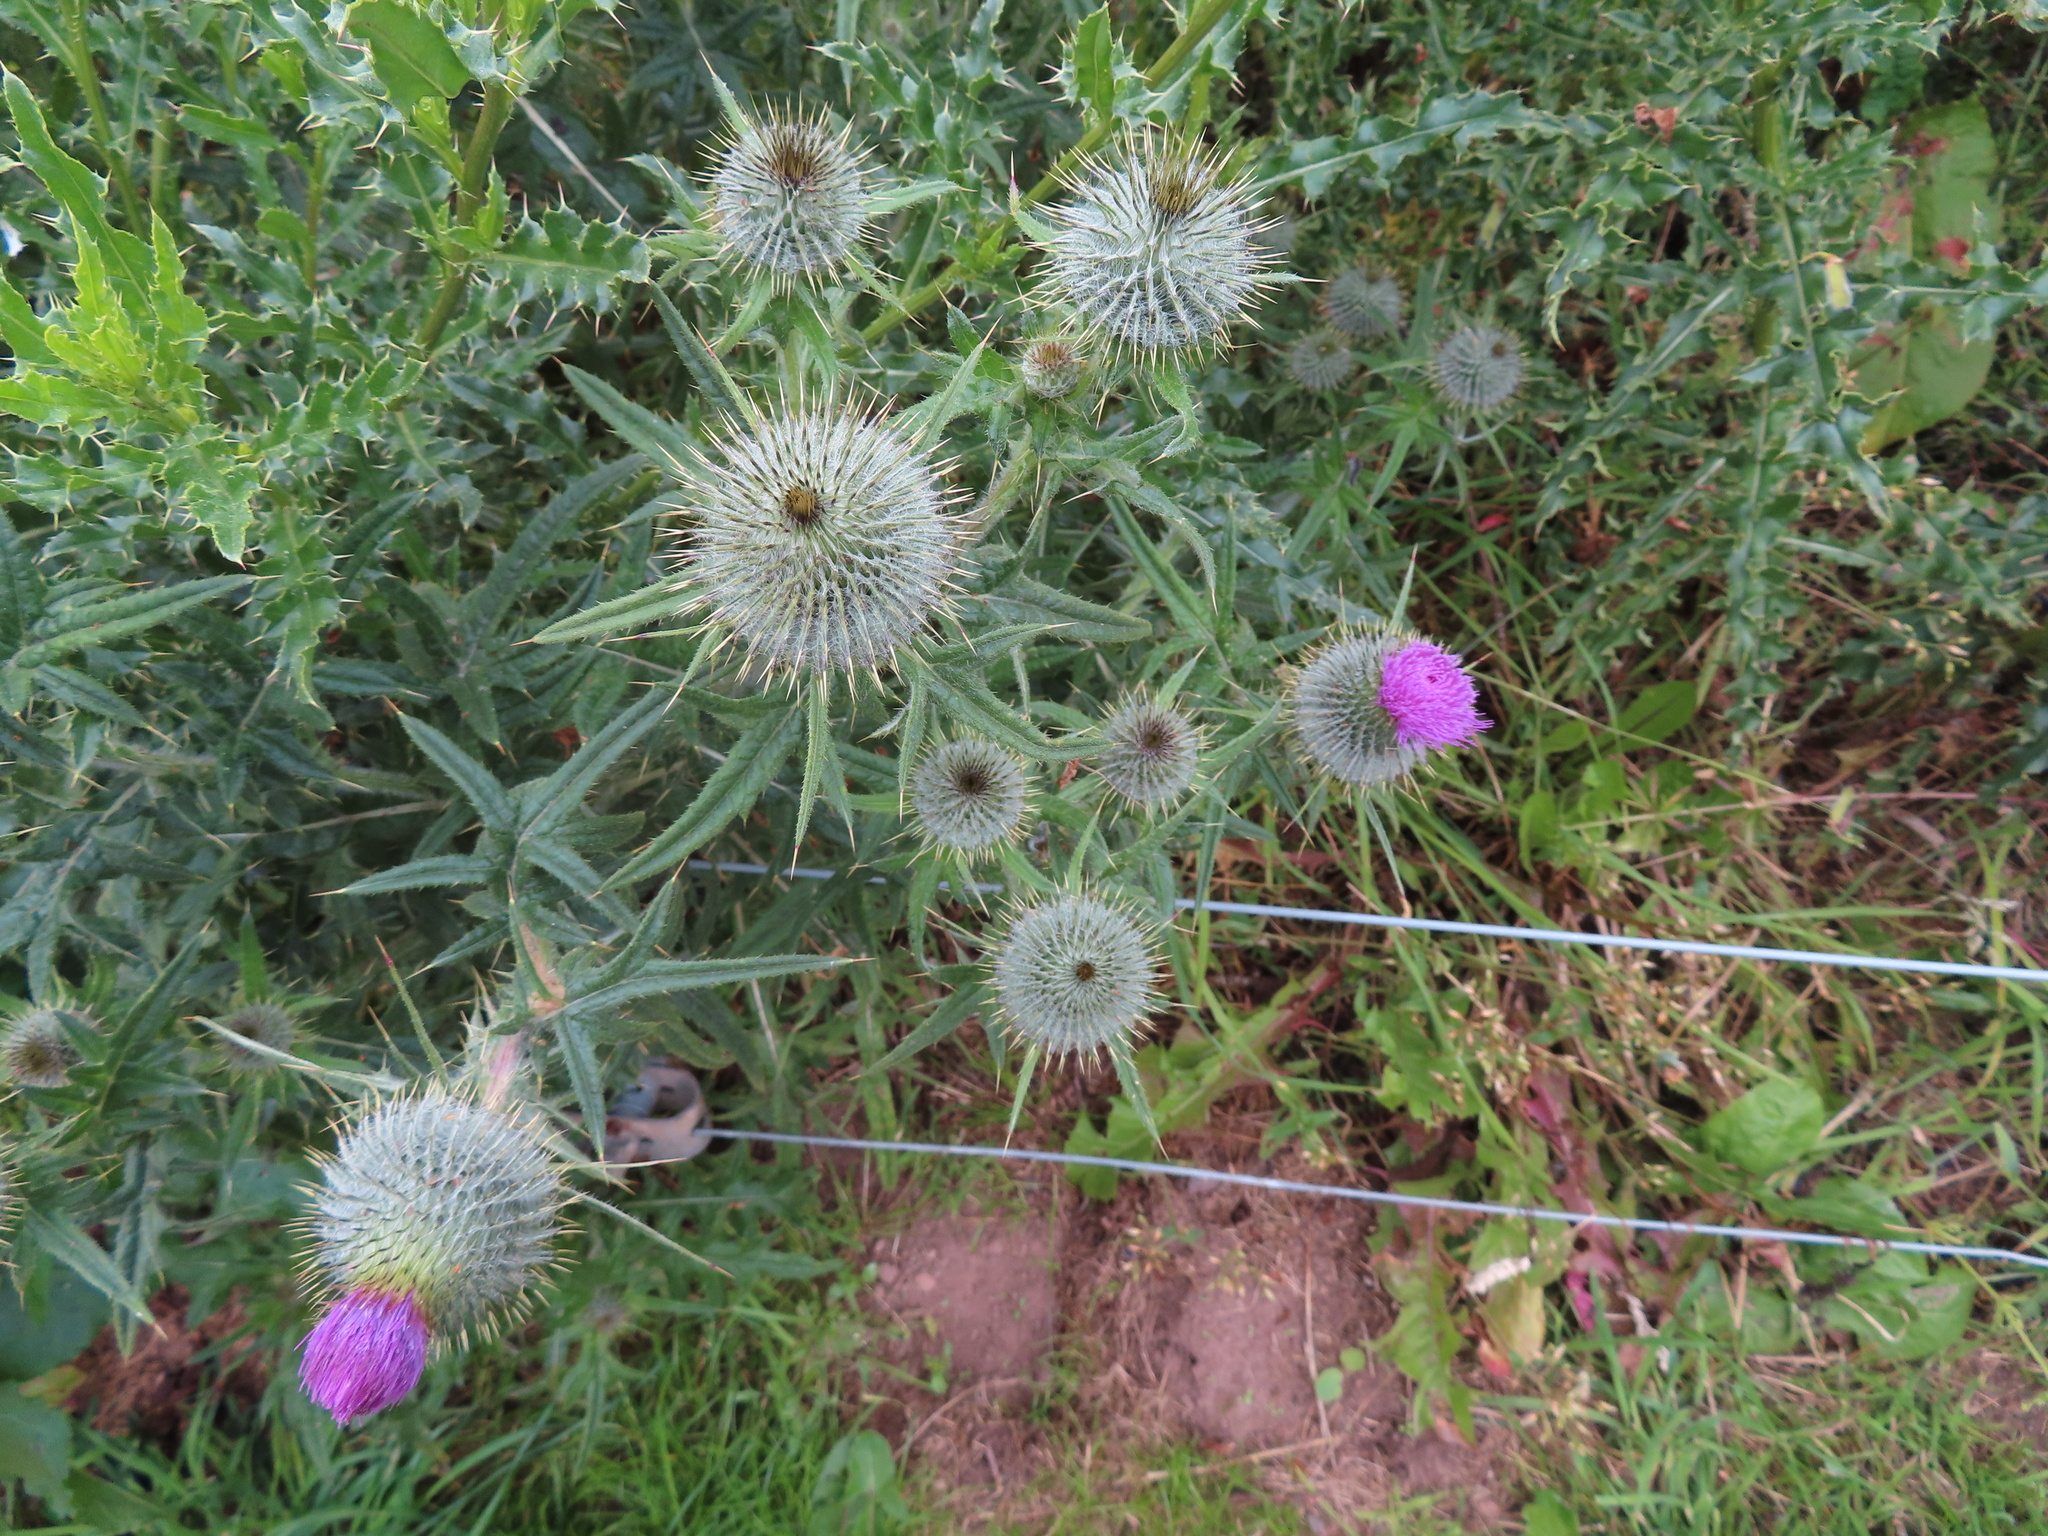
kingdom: Plantae
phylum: Tracheophyta
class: Magnoliopsida
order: Asterales
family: Asteraceae
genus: Cirsium
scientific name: Cirsium vulgare
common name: Bull thistle
